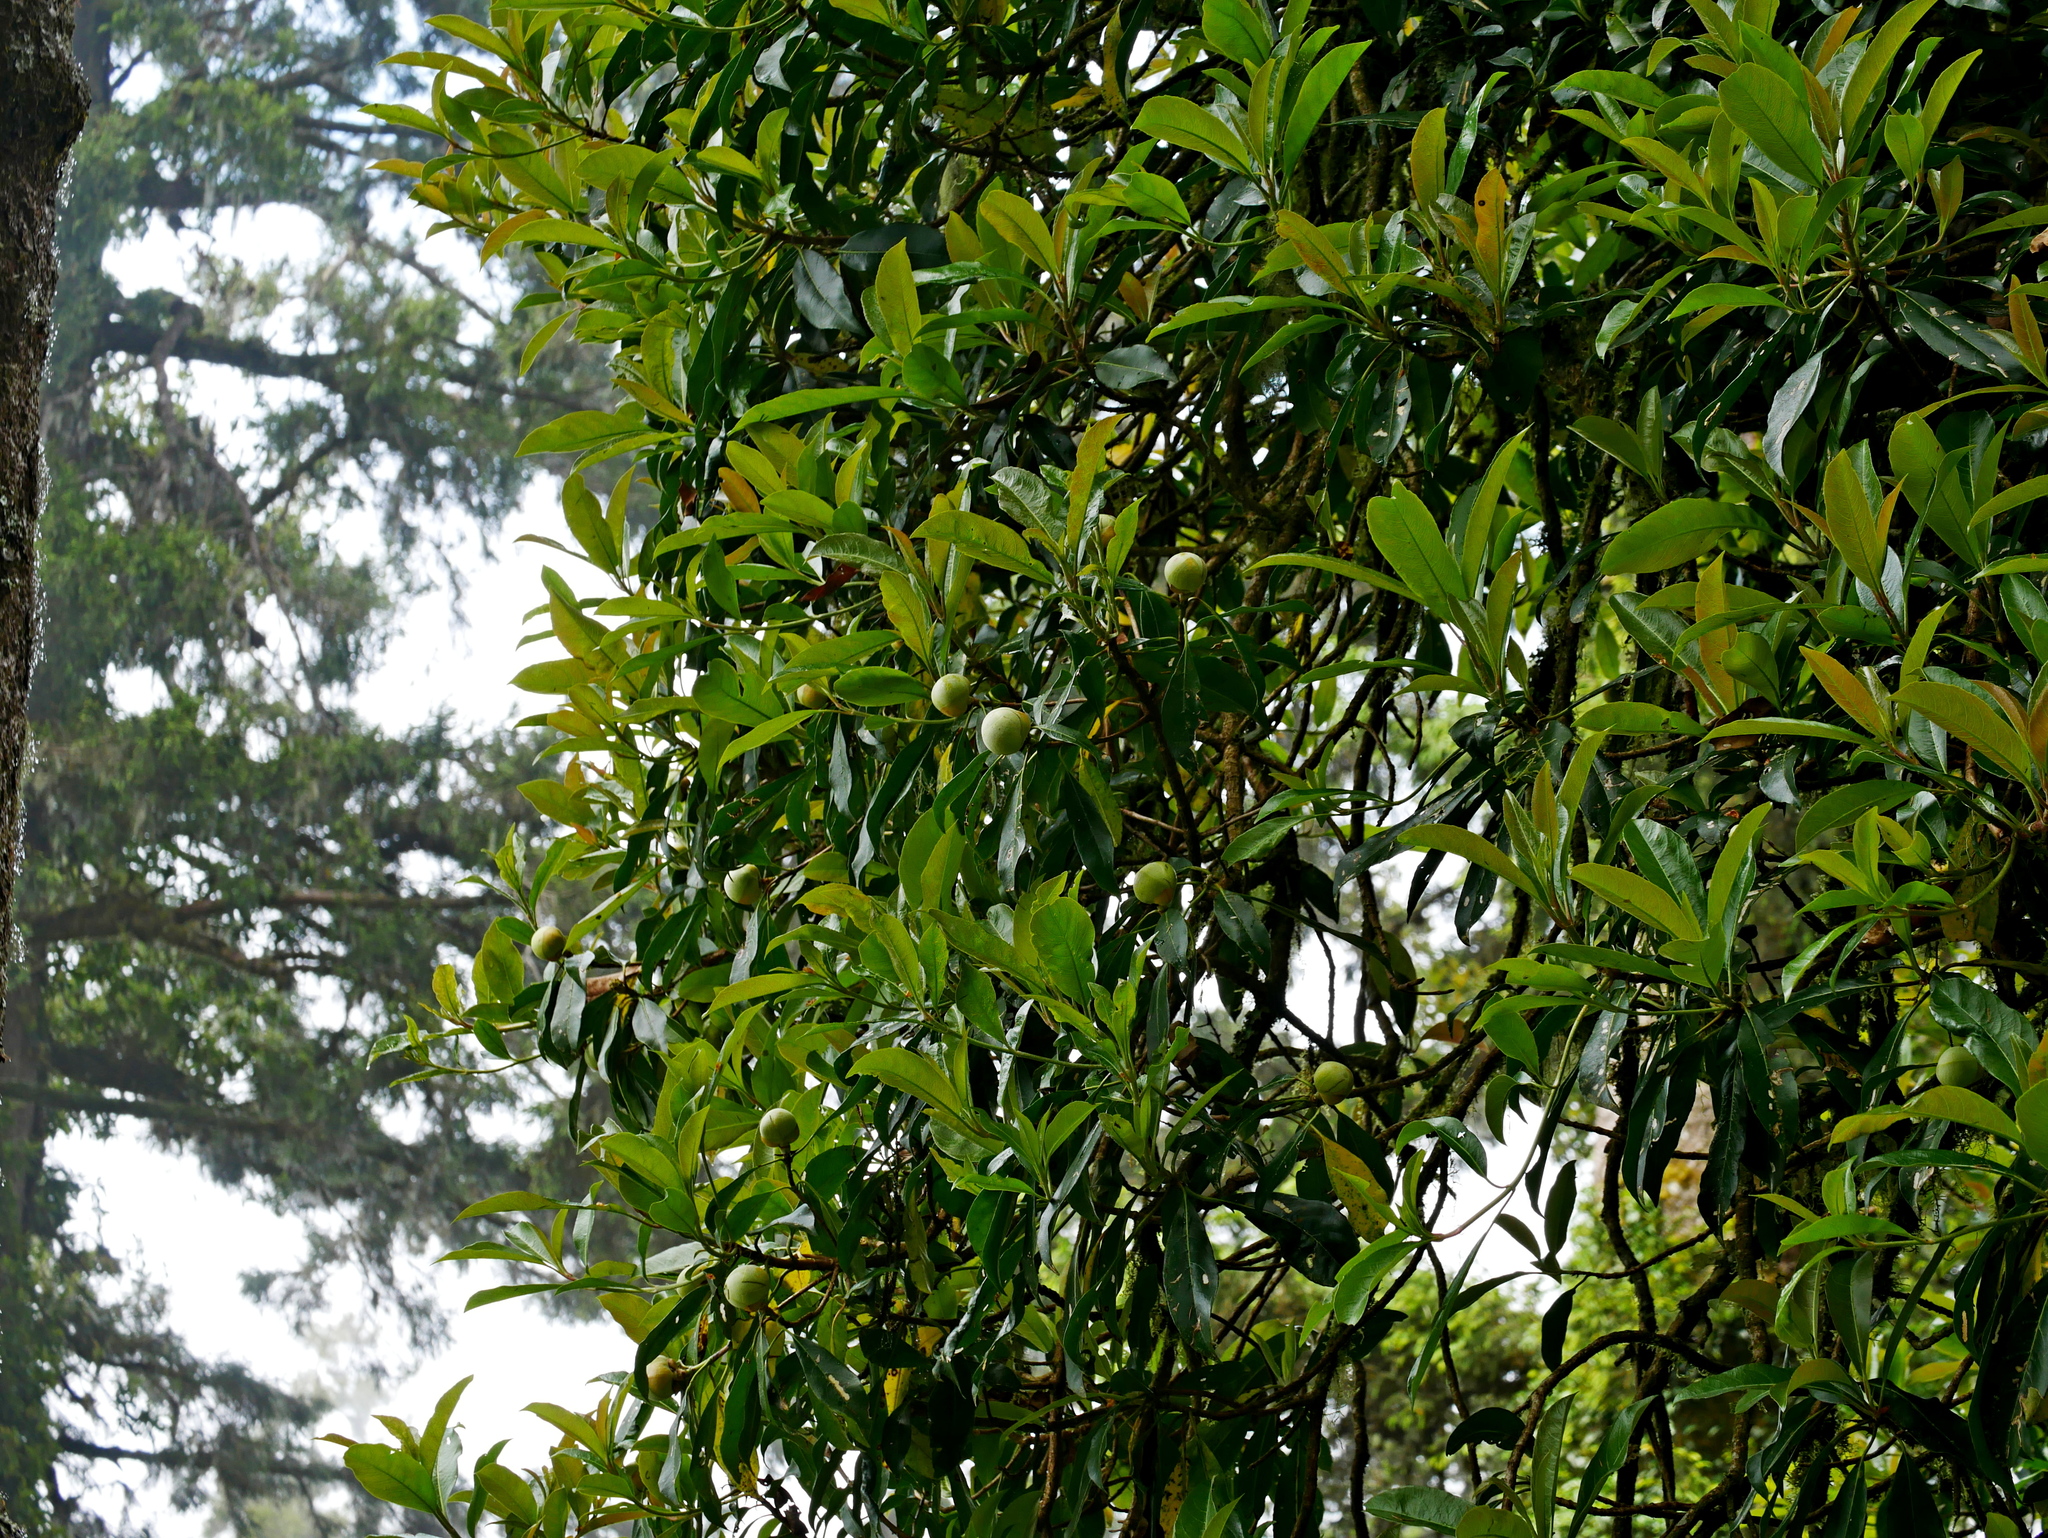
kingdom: Plantae
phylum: Tracheophyta
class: Magnoliopsida
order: Cornales
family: Hydrangeaceae
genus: Hydrangea
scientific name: Hydrangea integrifolia
